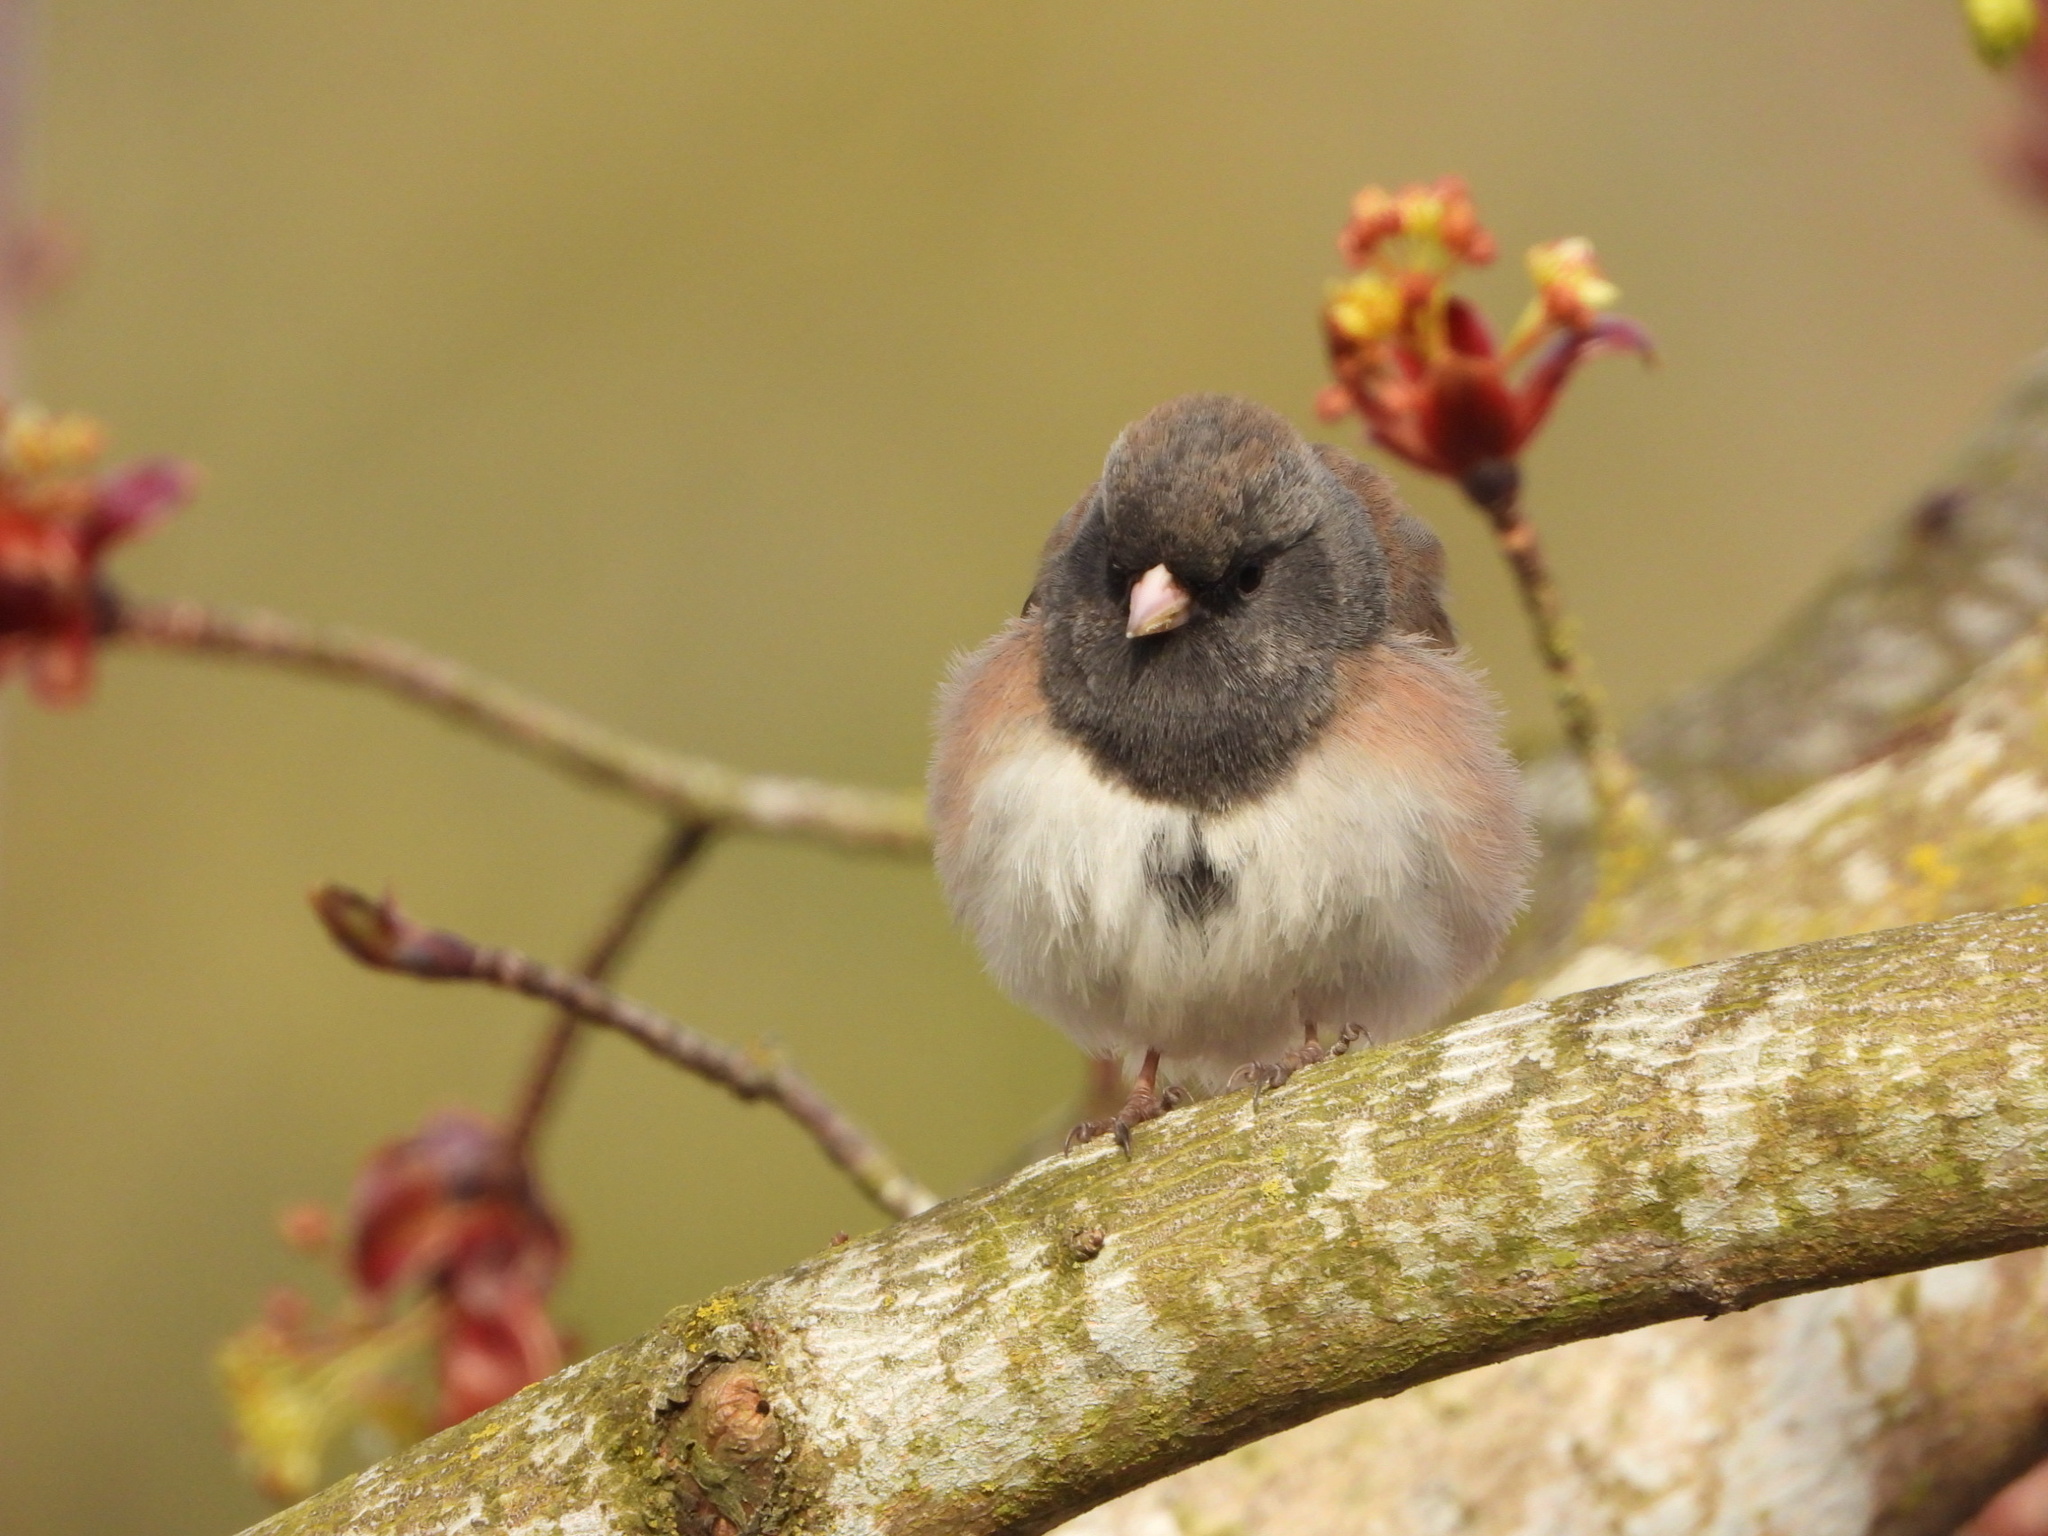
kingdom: Animalia
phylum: Chordata
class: Aves
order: Passeriformes
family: Passerellidae
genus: Junco
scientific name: Junco hyemalis
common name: Dark-eyed junco
